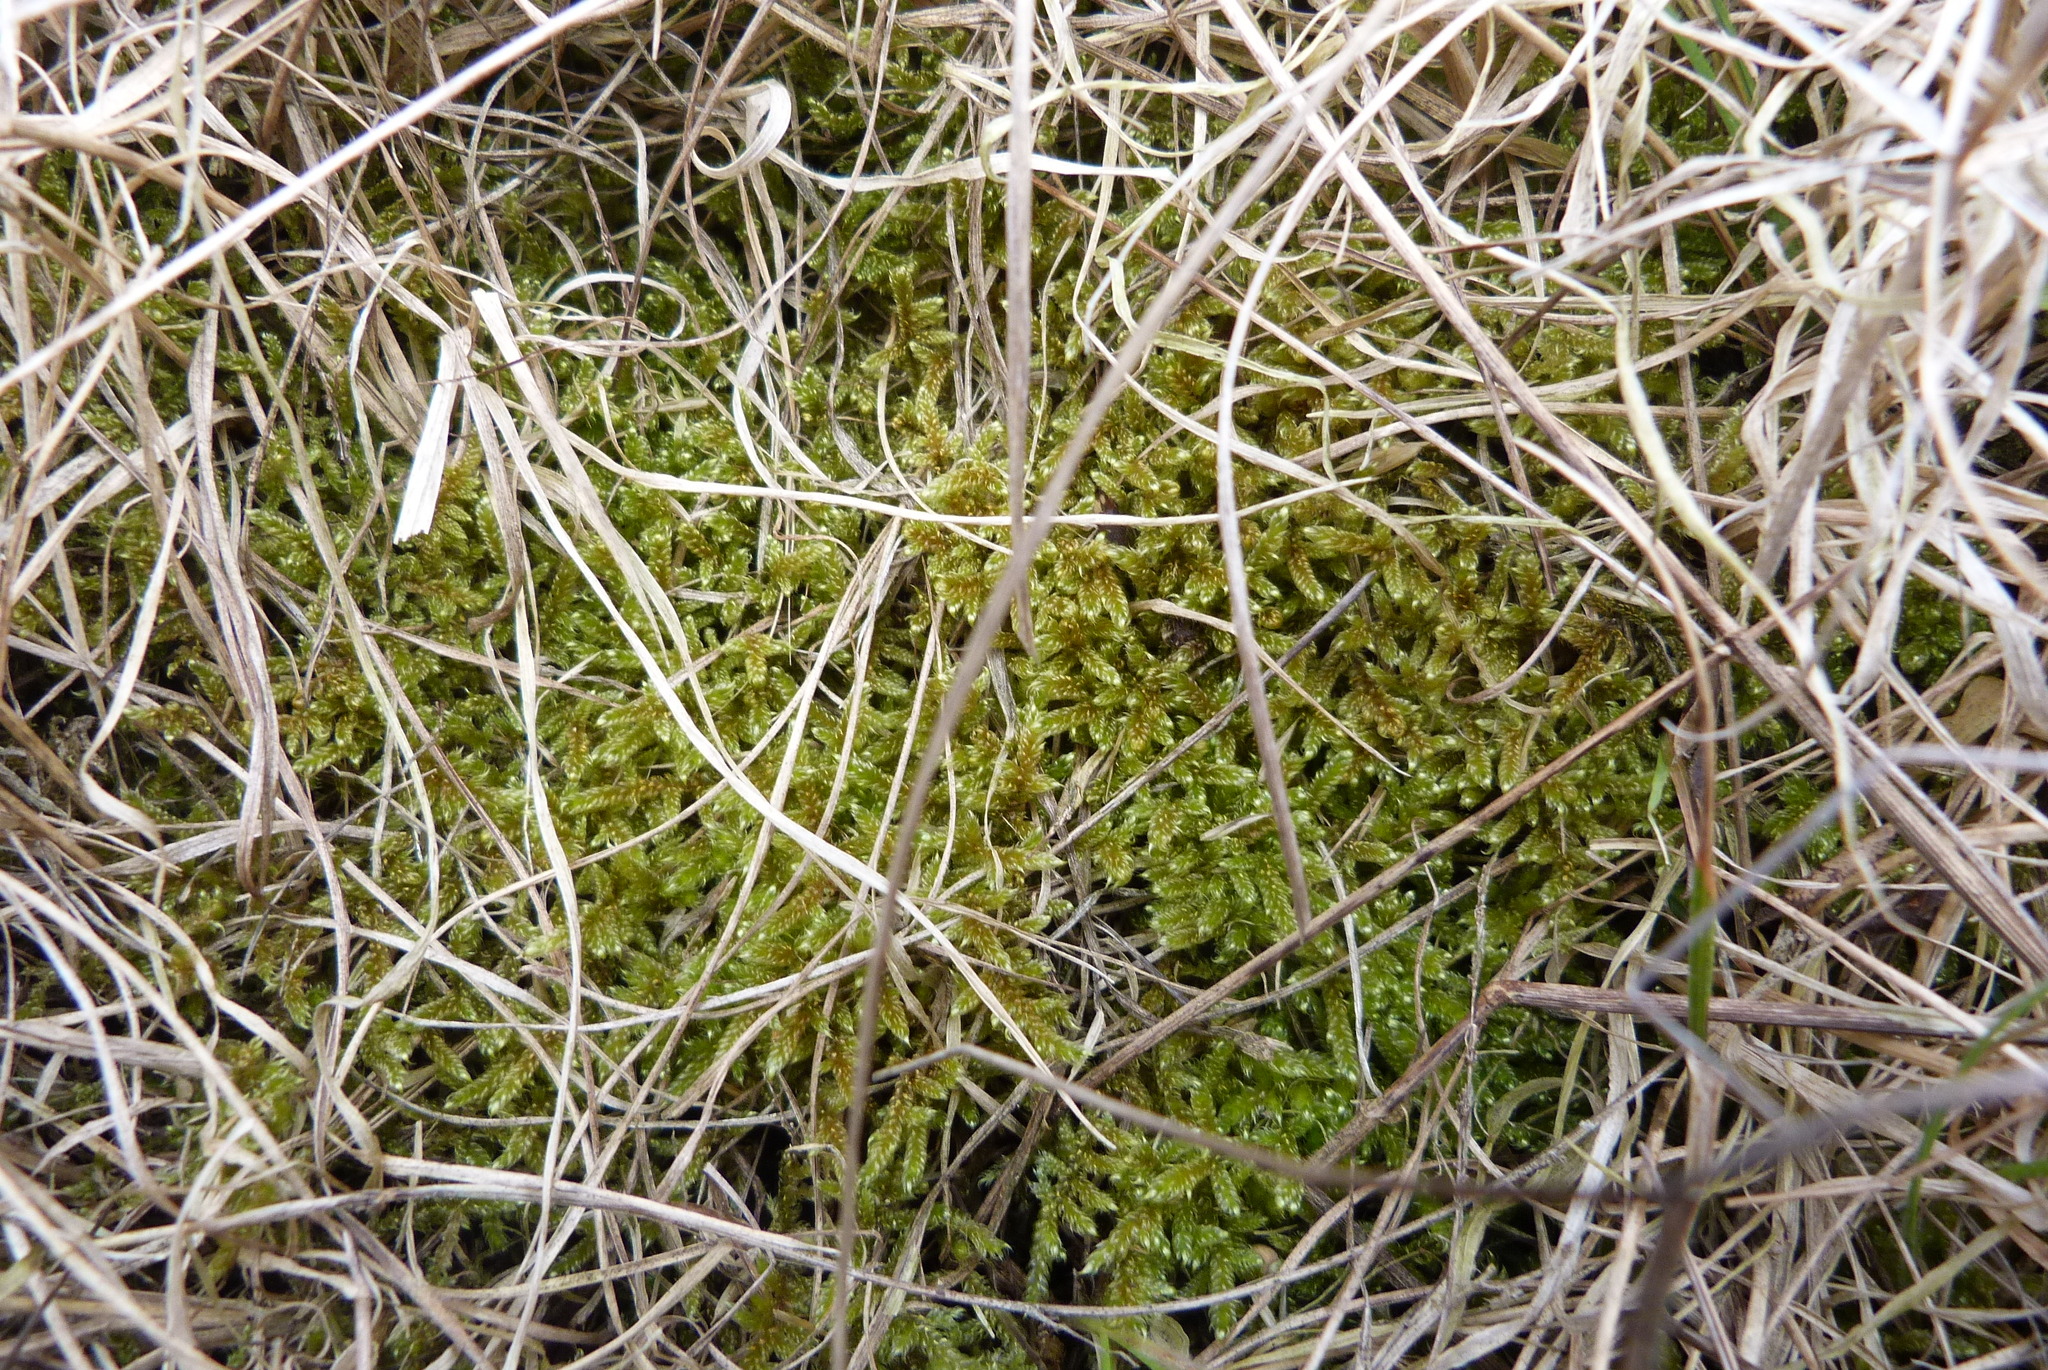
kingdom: Plantae
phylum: Bryophyta
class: Bryopsida
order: Hypnales
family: Hypnaceae
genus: Hypnum
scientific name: Hypnum cupressiforme
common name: Cypress-leaved plait-moss
